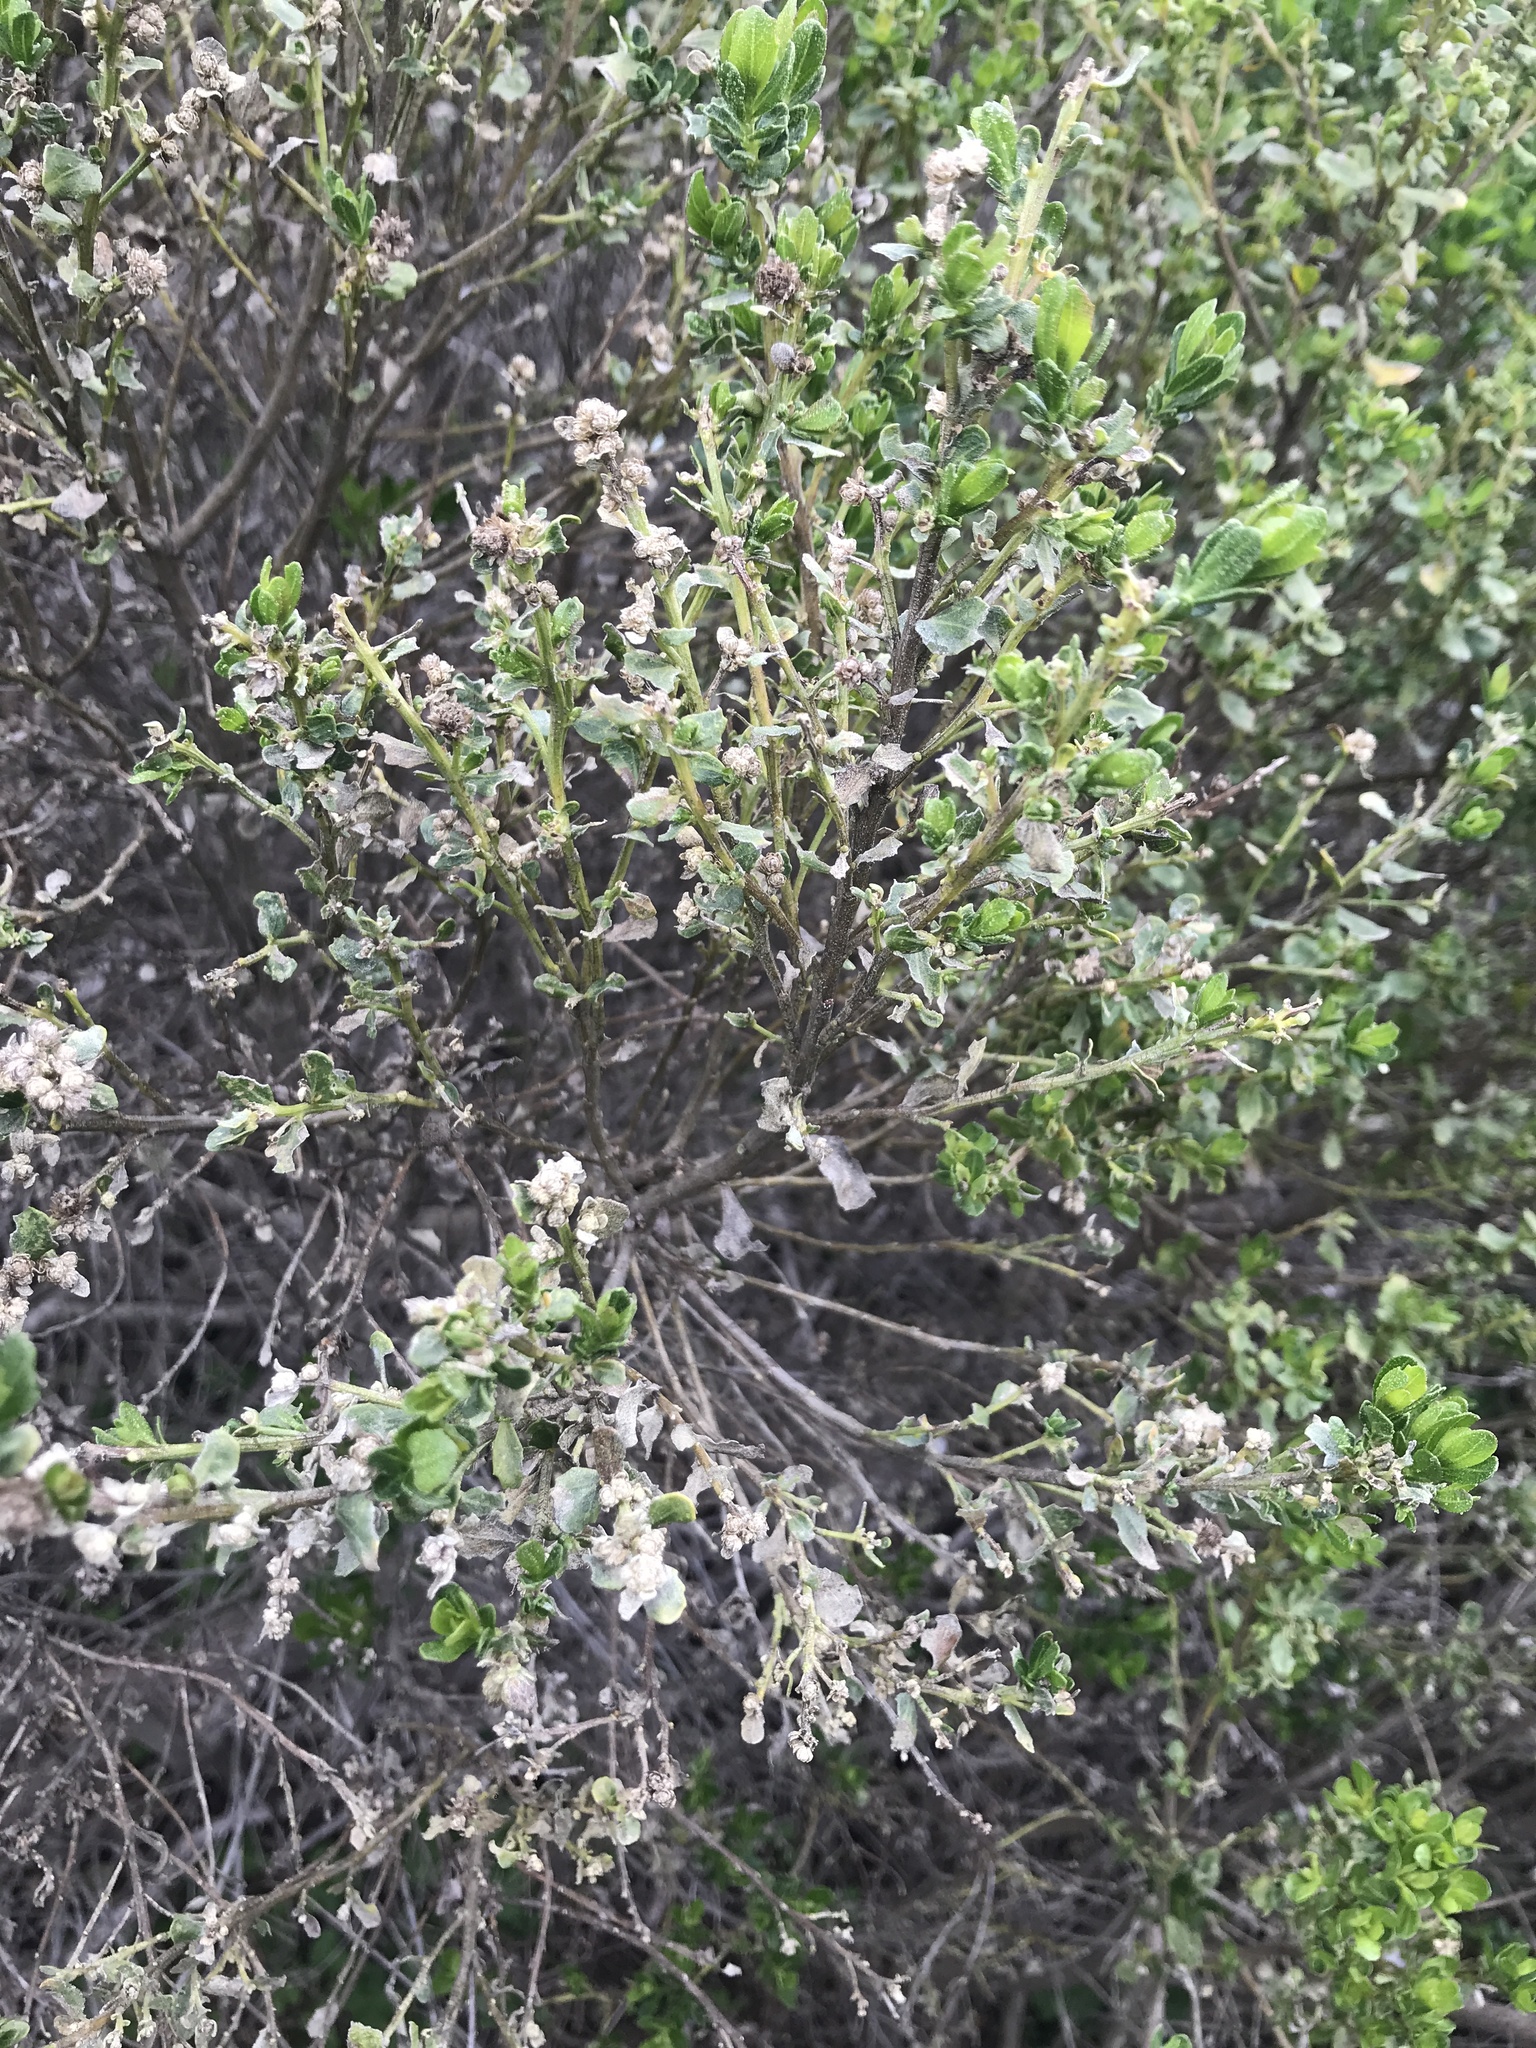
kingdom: Plantae
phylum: Tracheophyta
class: Magnoliopsida
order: Asterales
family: Asteraceae
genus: Baccharis
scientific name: Baccharis pilularis
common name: Coyotebrush
